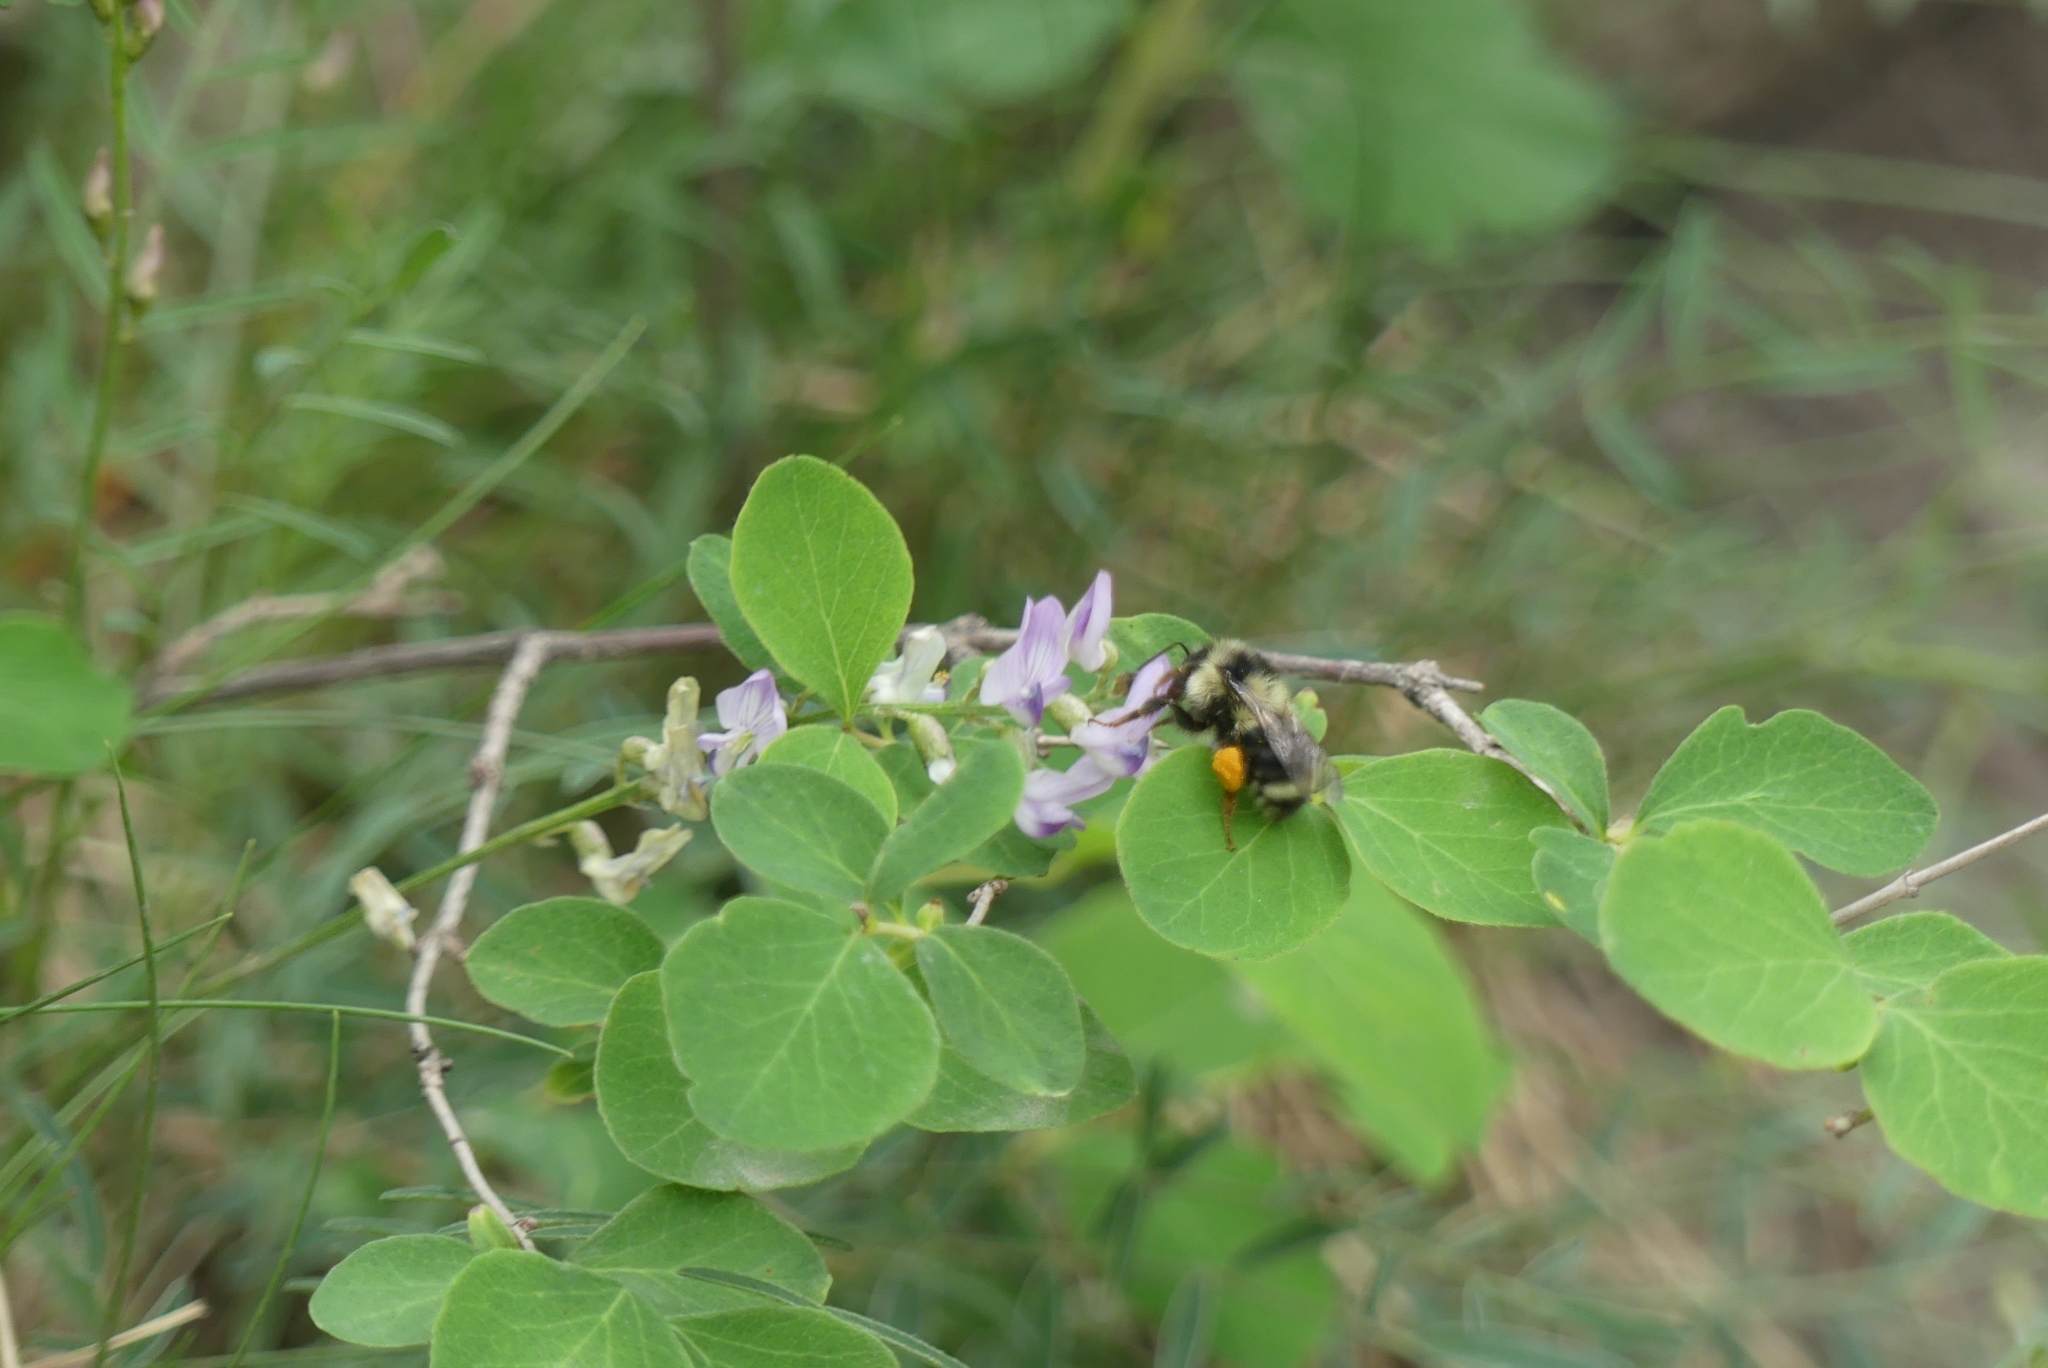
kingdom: Animalia
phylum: Arthropoda
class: Insecta
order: Hymenoptera
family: Apidae
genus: Bombus
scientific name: Bombus vancouverensis
